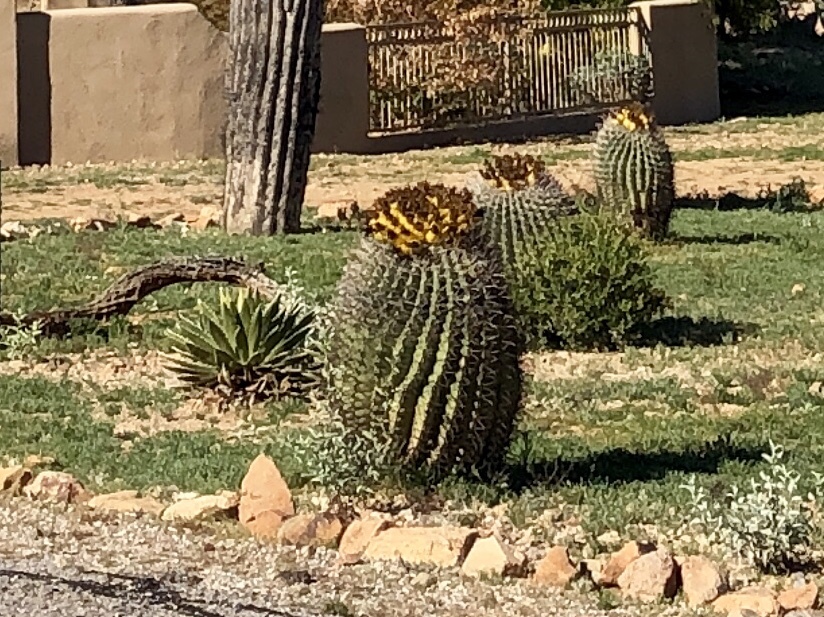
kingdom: Plantae
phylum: Tracheophyta
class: Magnoliopsida
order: Caryophyllales
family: Cactaceae
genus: Ferocactus
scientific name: Ferocactus wislizeni
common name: Candy barrel cactus
